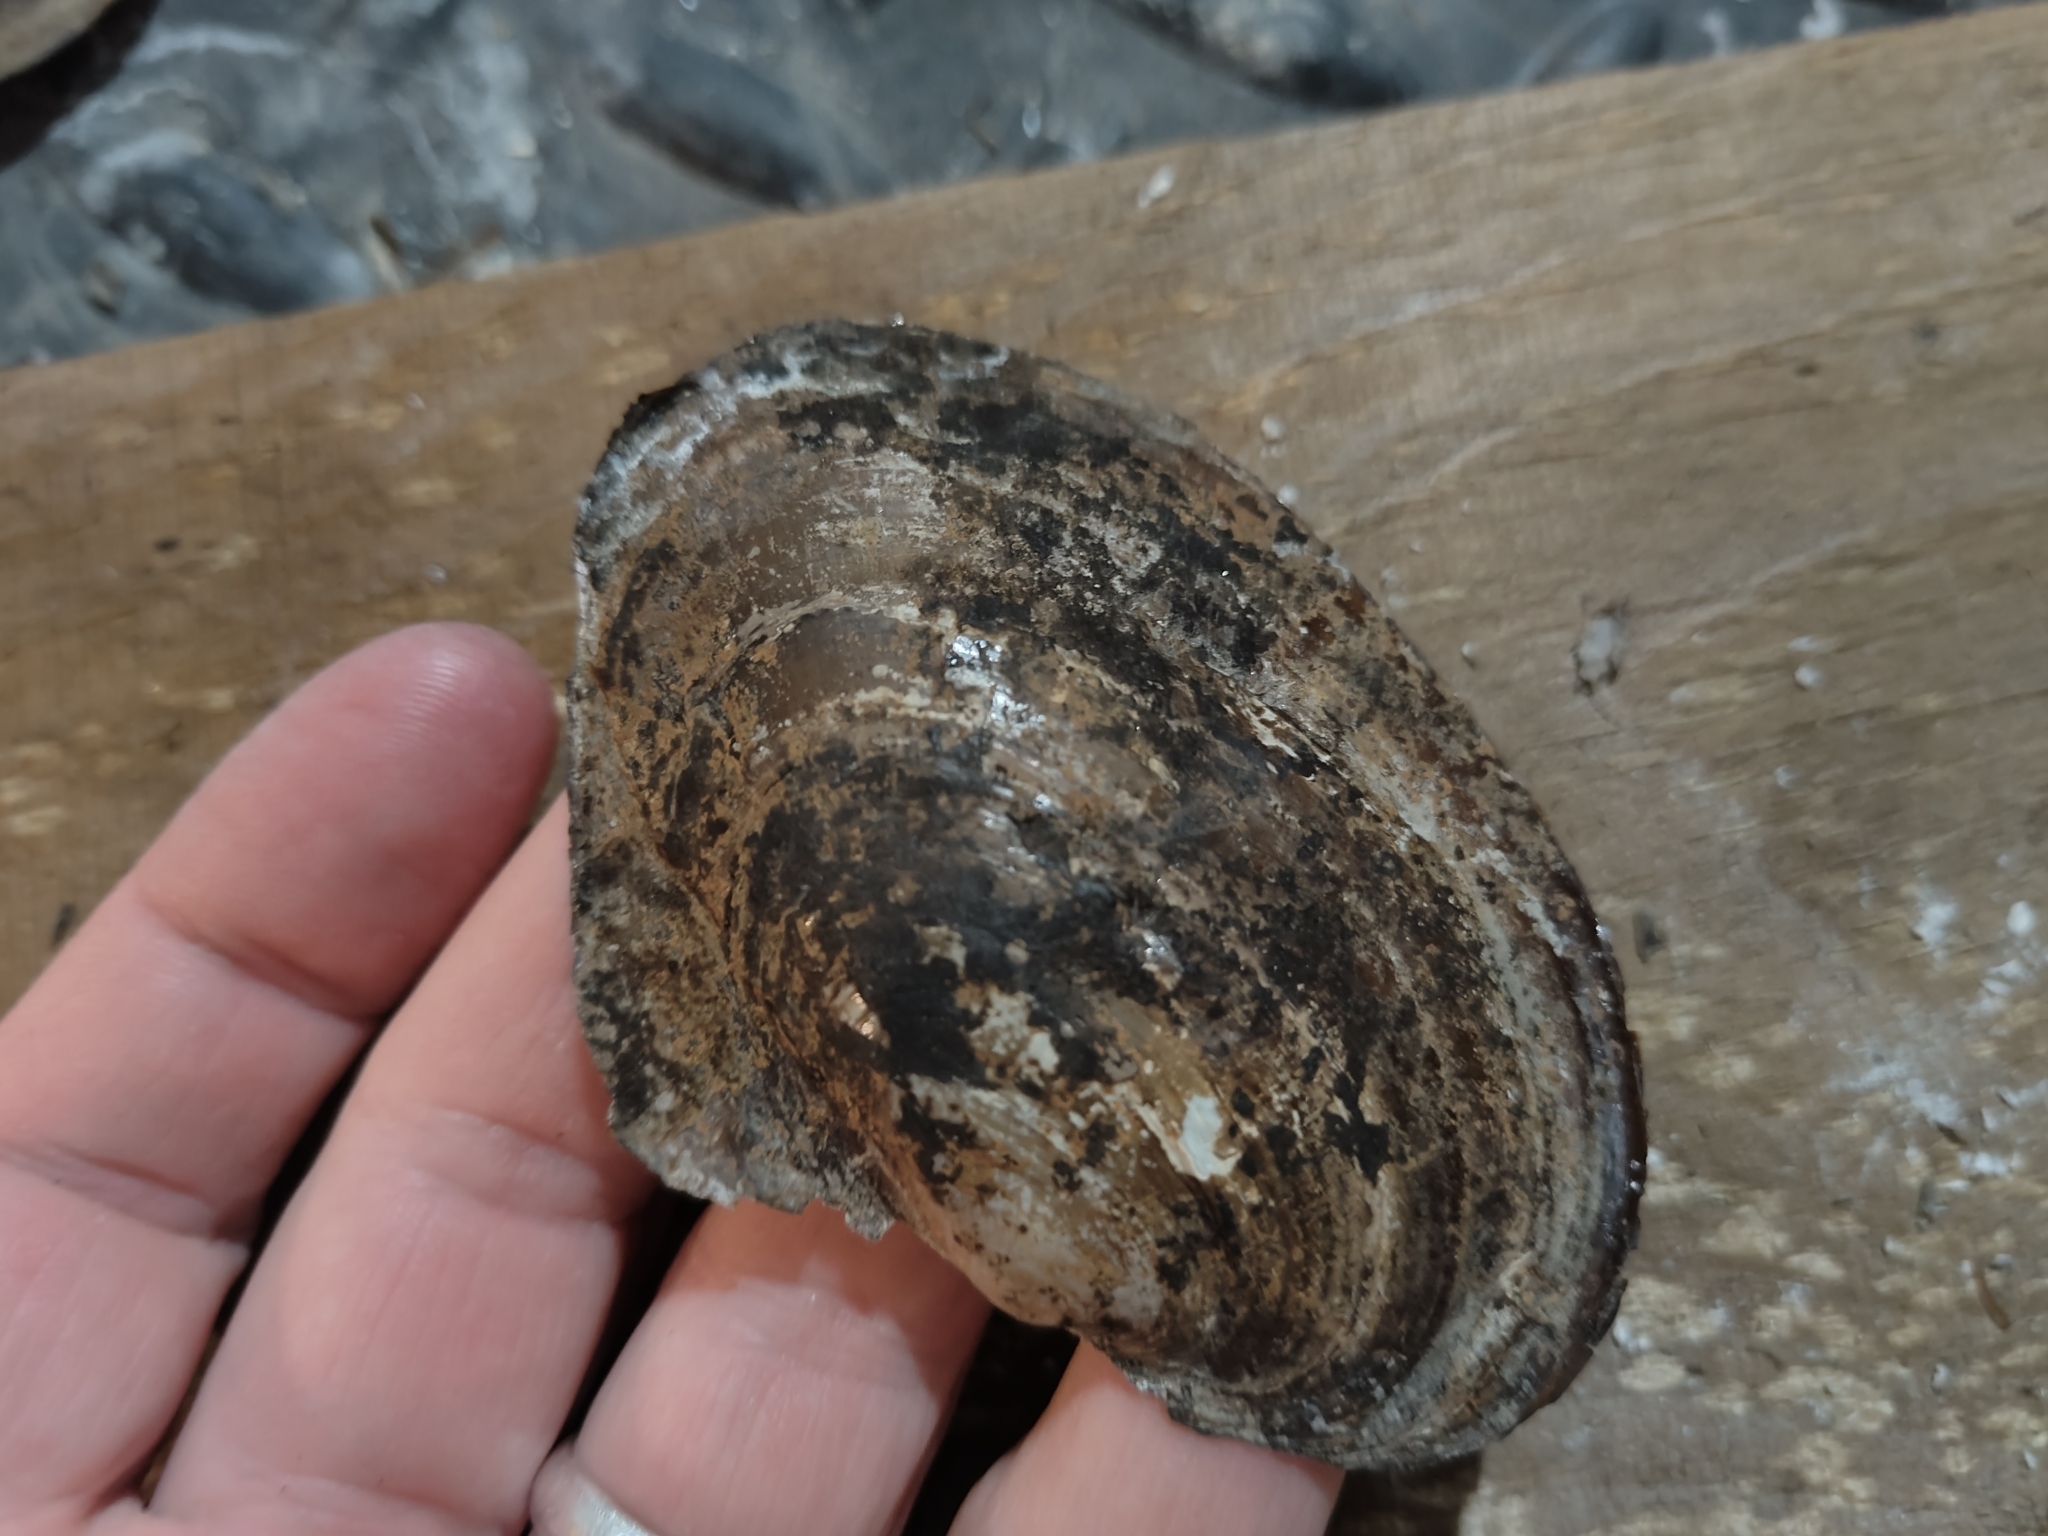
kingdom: Animalia
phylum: Mollusca
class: Bivalvia
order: Unionida
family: Unionidae
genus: Potamilus
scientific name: Potamilus ohiensis
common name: Pink papershell
